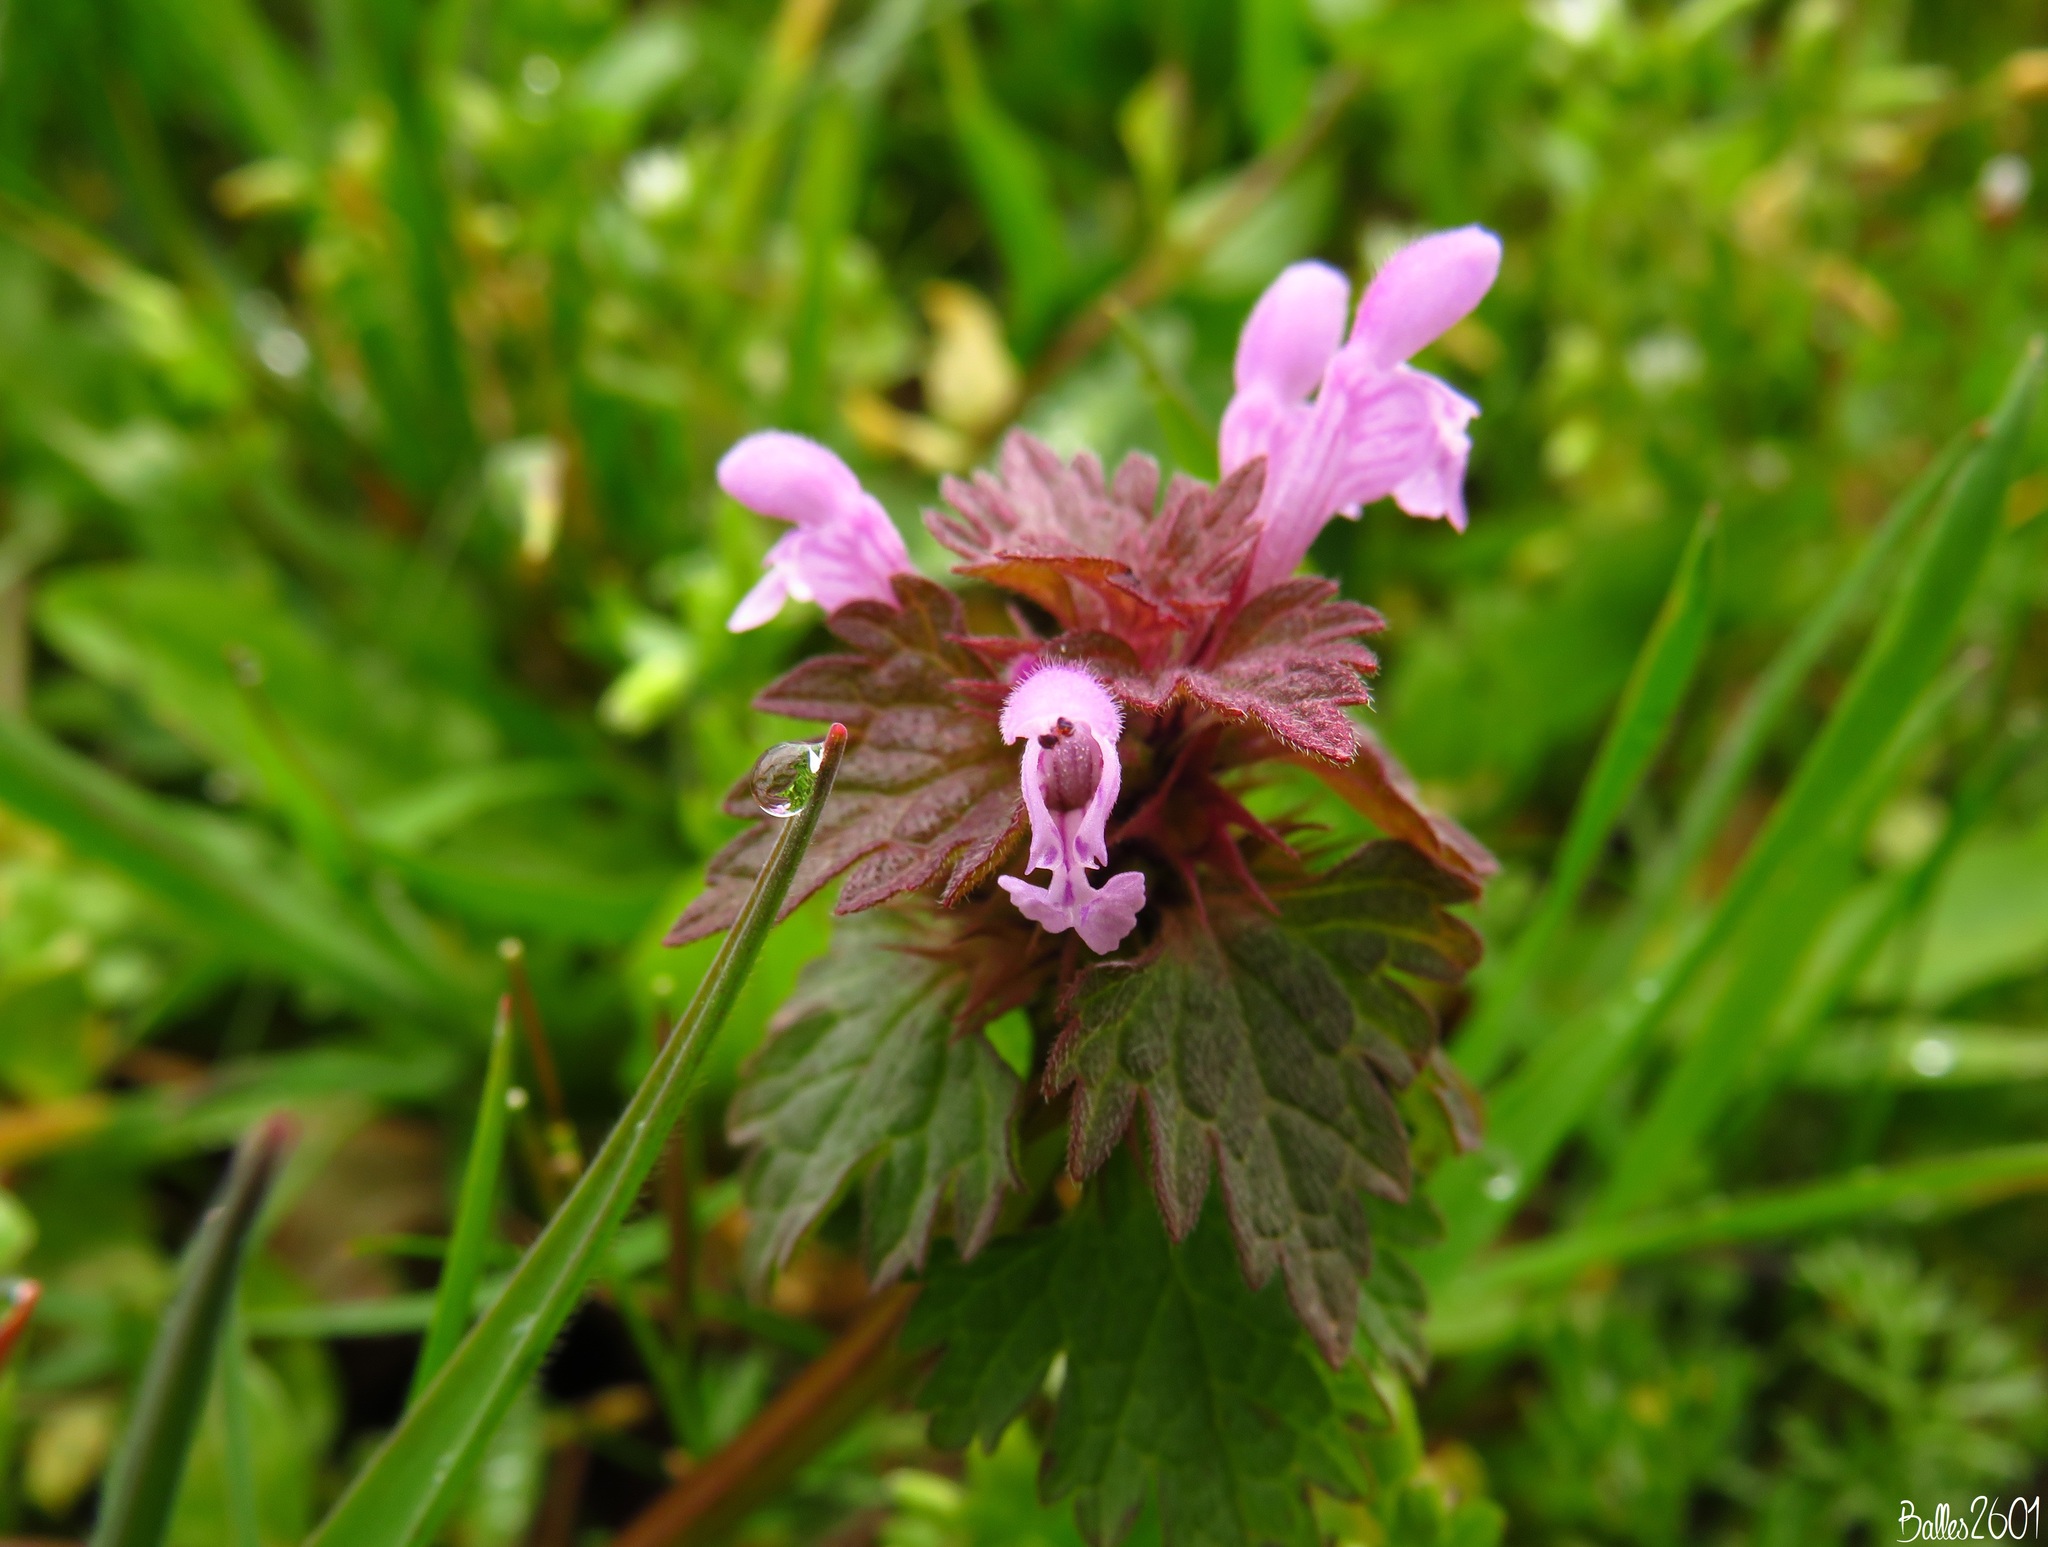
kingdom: Plantae
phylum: Tracheophyta
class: Magnoliopsida
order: Lamiales
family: Lamiaceae
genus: Lamium
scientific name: Lamium hybridum
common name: Cut-leaved dead-nettle
